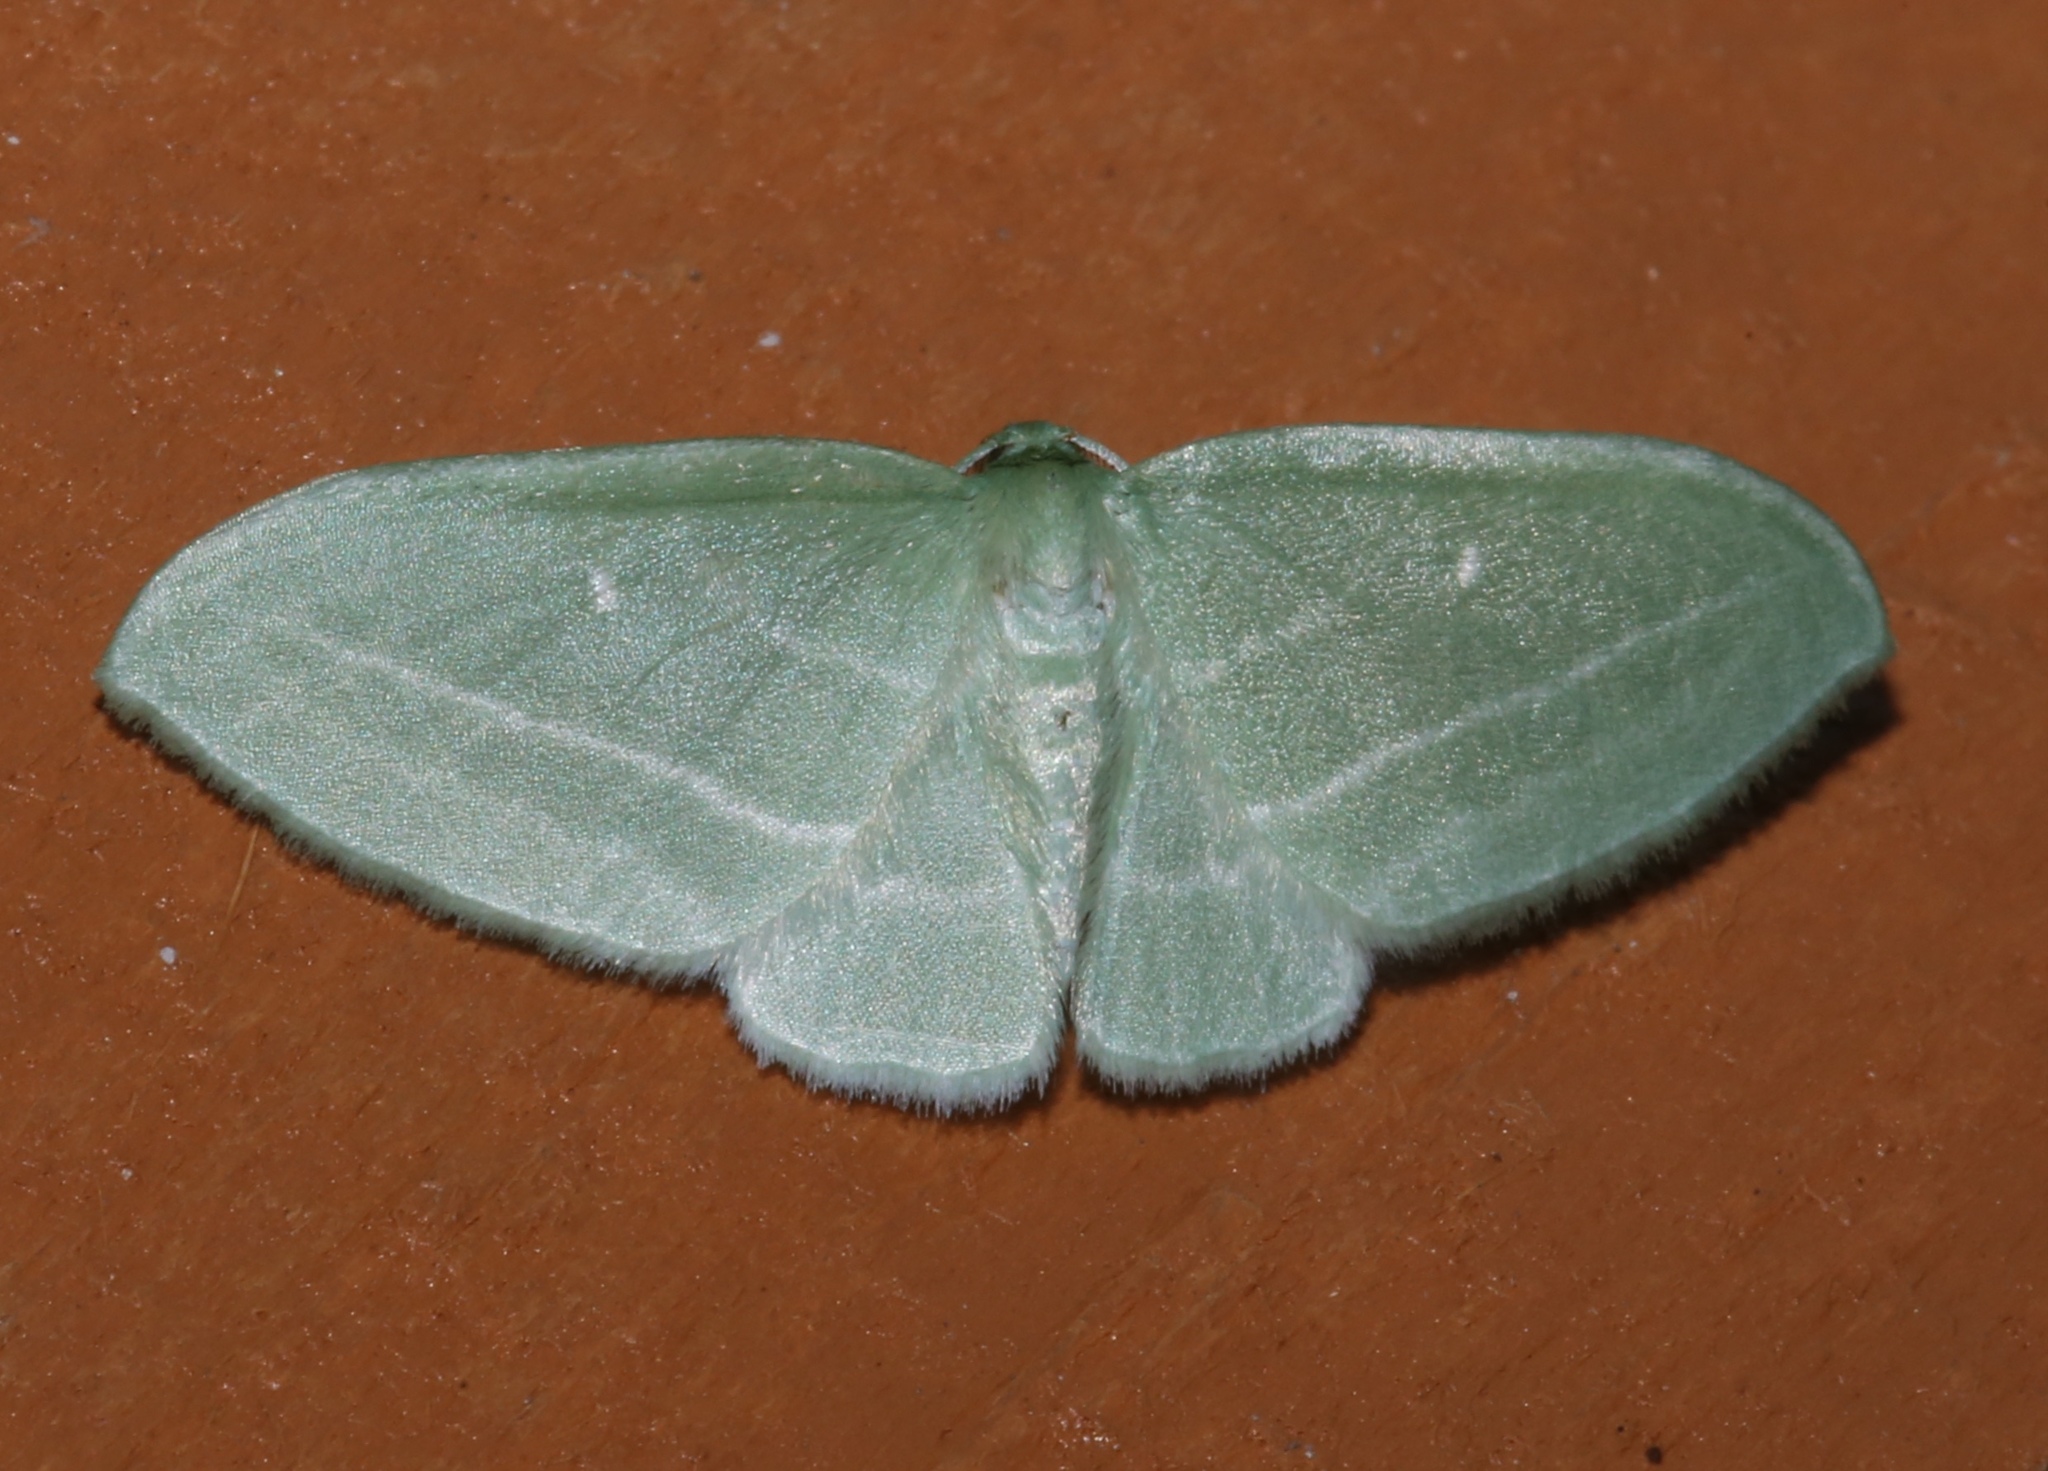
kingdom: Animalia
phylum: Arthropoda
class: Insecta
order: Lepidoptera
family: Geometridae
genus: Dyspteris
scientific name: Dyspteris abortivaria
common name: Bad-wing
